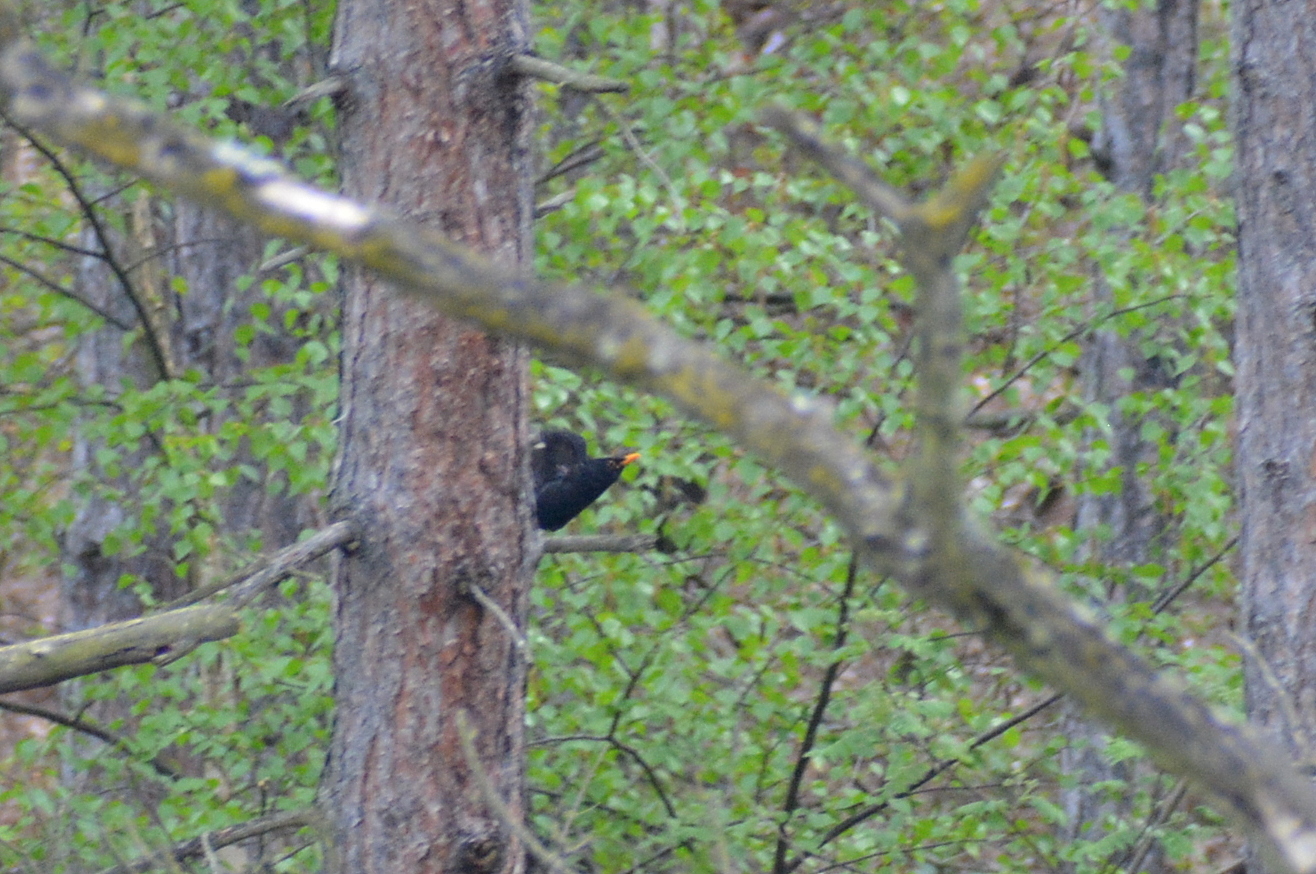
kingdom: Animalia
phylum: Chordata
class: Aves
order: Passeriformes
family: Turdidae
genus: Turdus
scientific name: Turdus merula
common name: Common blackbird
